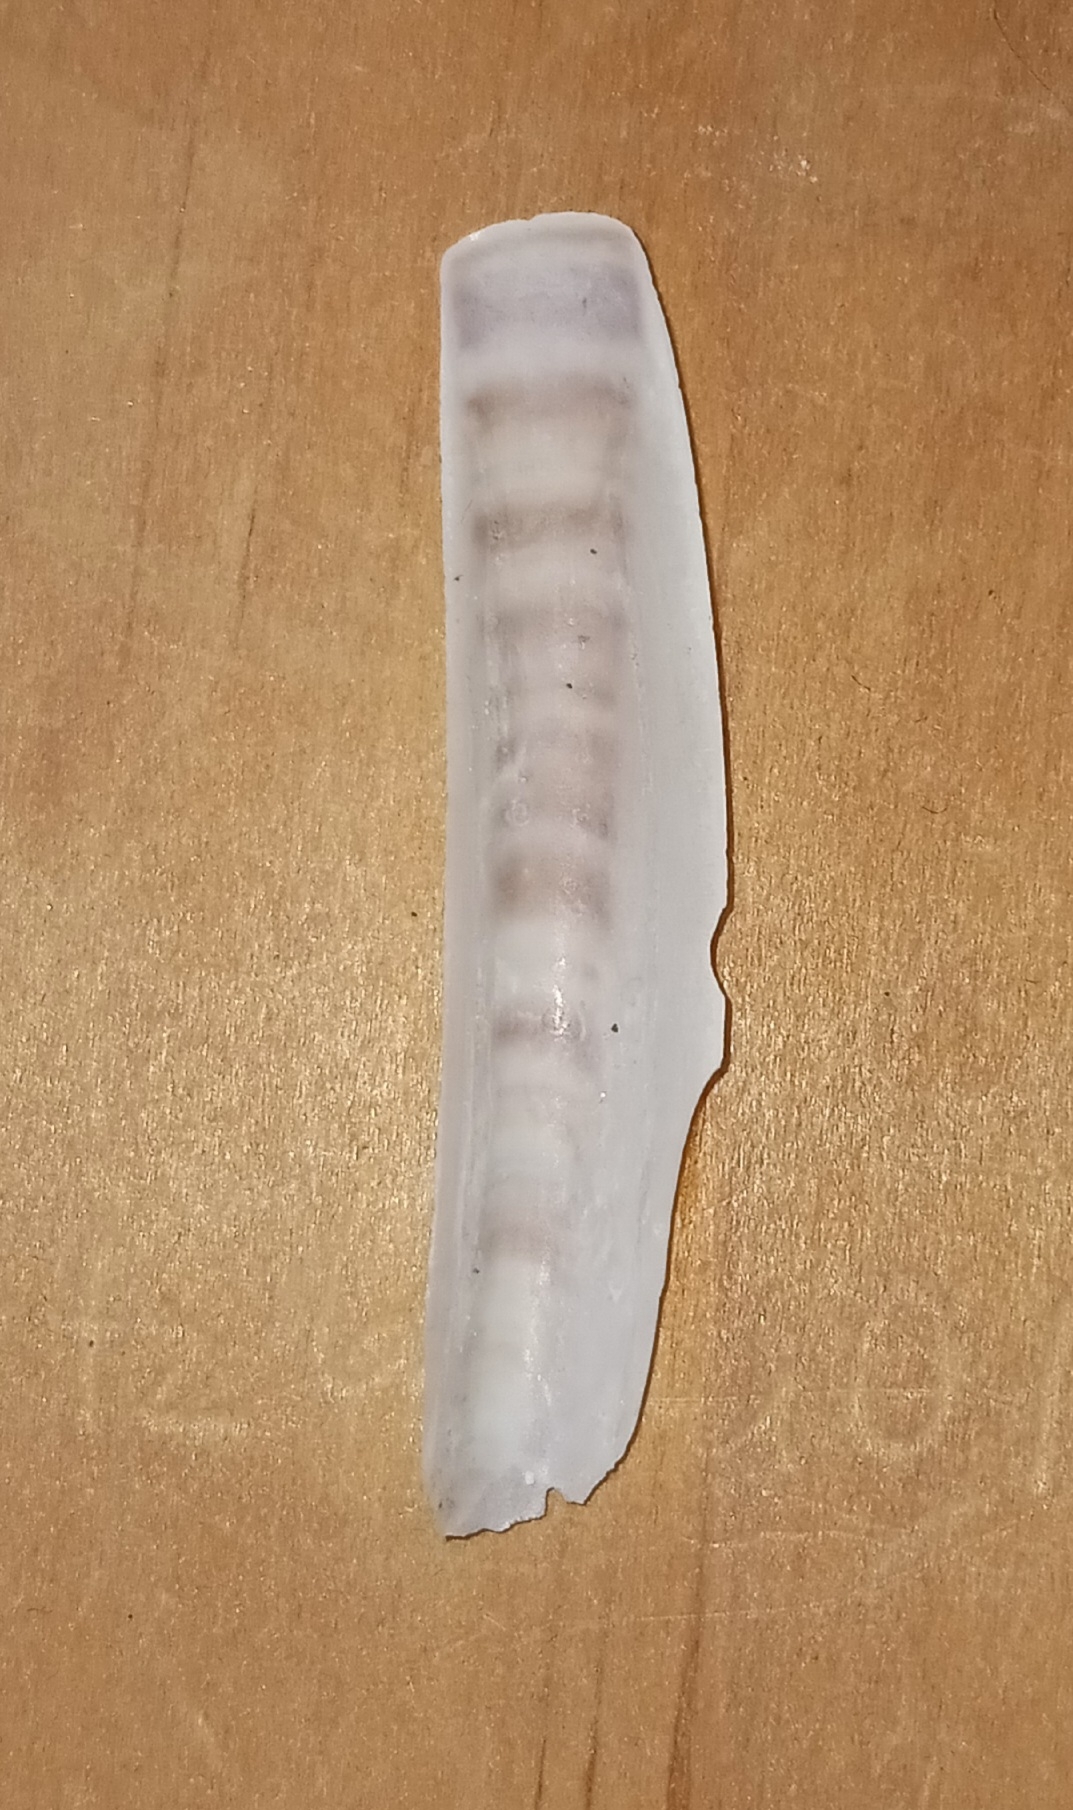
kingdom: Animalia
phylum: Mollusca
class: Bivalvia
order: Adapedonta
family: Pharidae
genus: Ensis
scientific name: Ensis leei
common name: American jack knife clam
